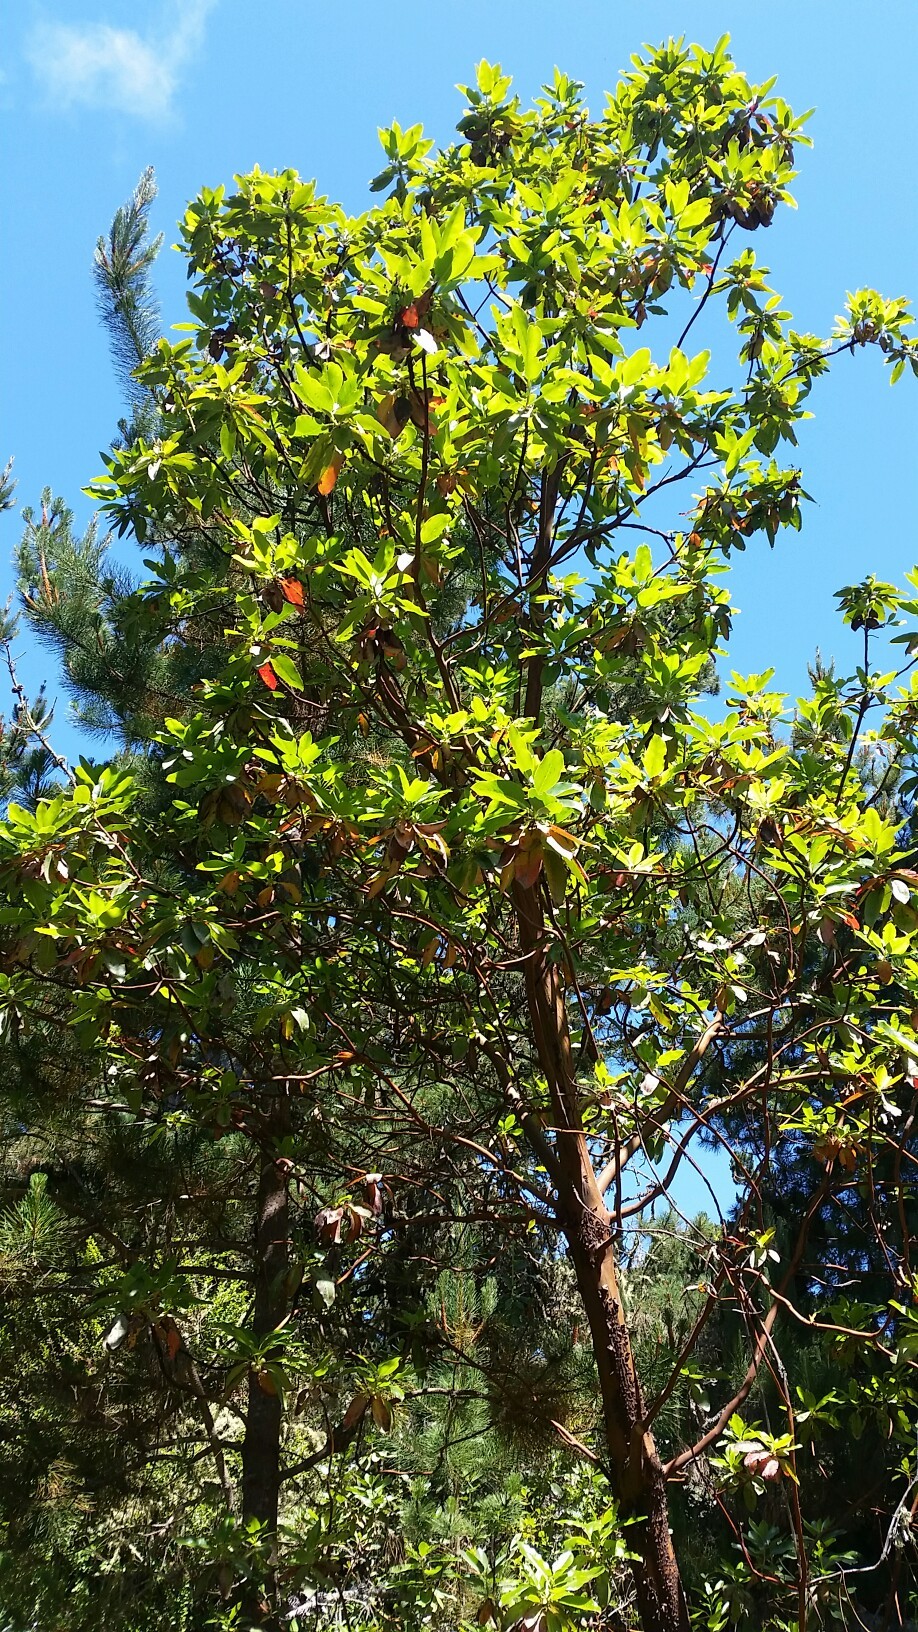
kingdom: Plantae
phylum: Tracheophyta
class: Magnoliopsida
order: Ericales
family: Ericaceae
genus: Arbutus
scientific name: Arbutus menziesii
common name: Pacific madrone
